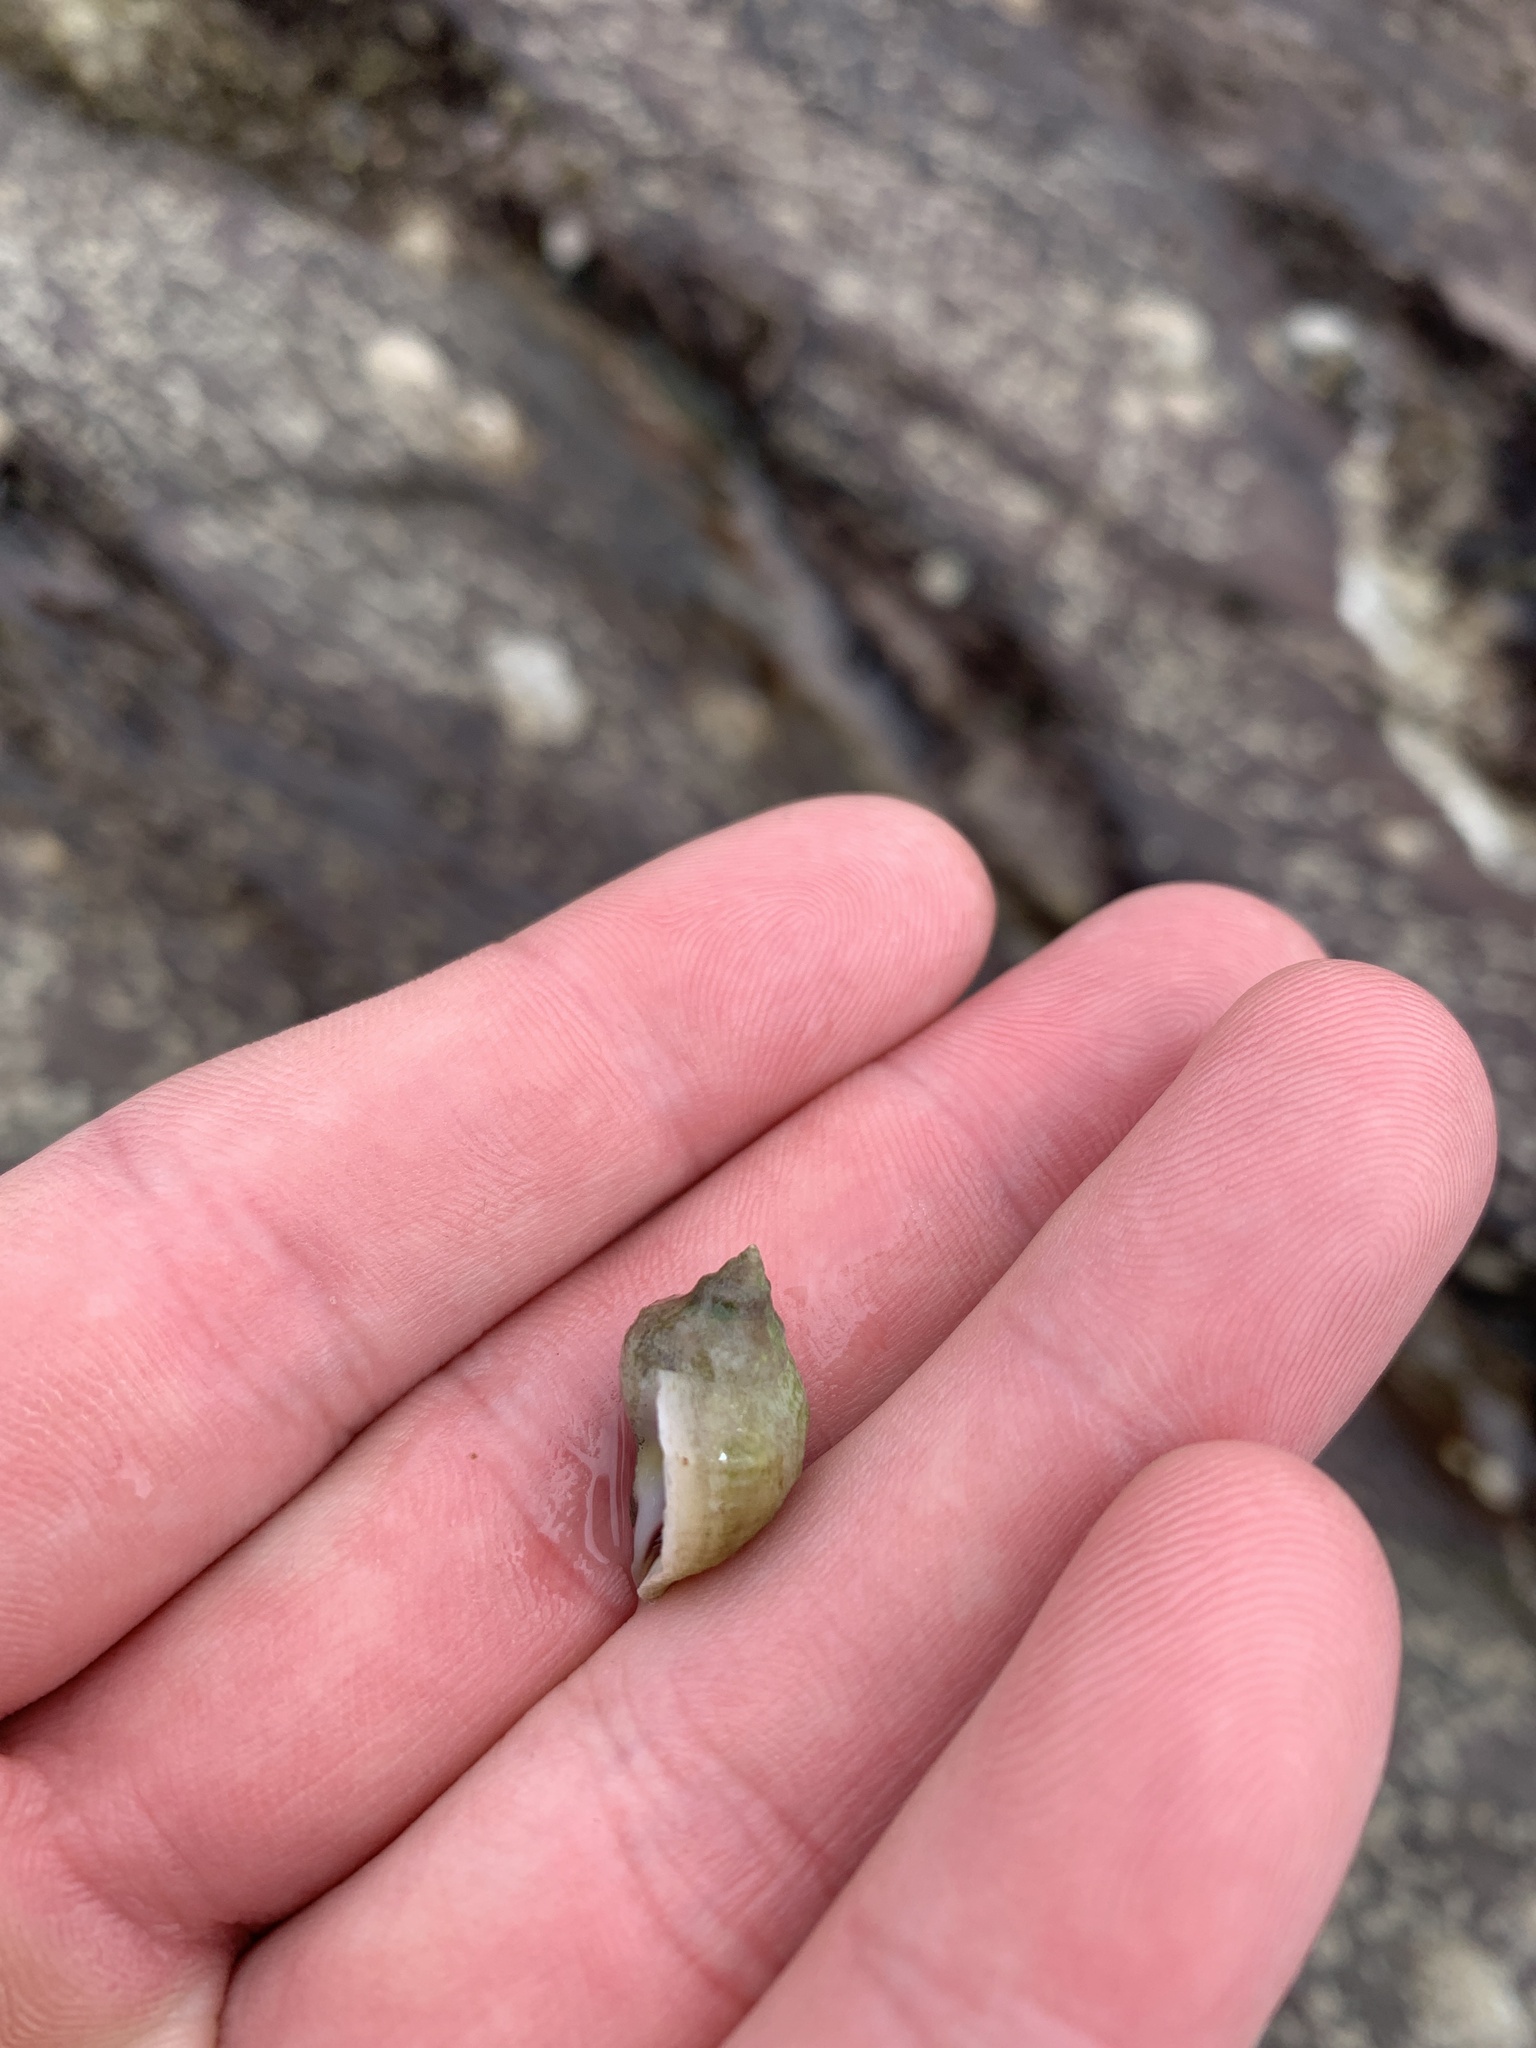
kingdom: Animalia
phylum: Mollusca
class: Gastropoda
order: Neogastropoda
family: Muricidae
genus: Nucella
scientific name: Nucella lapillus
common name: Dog whelk
